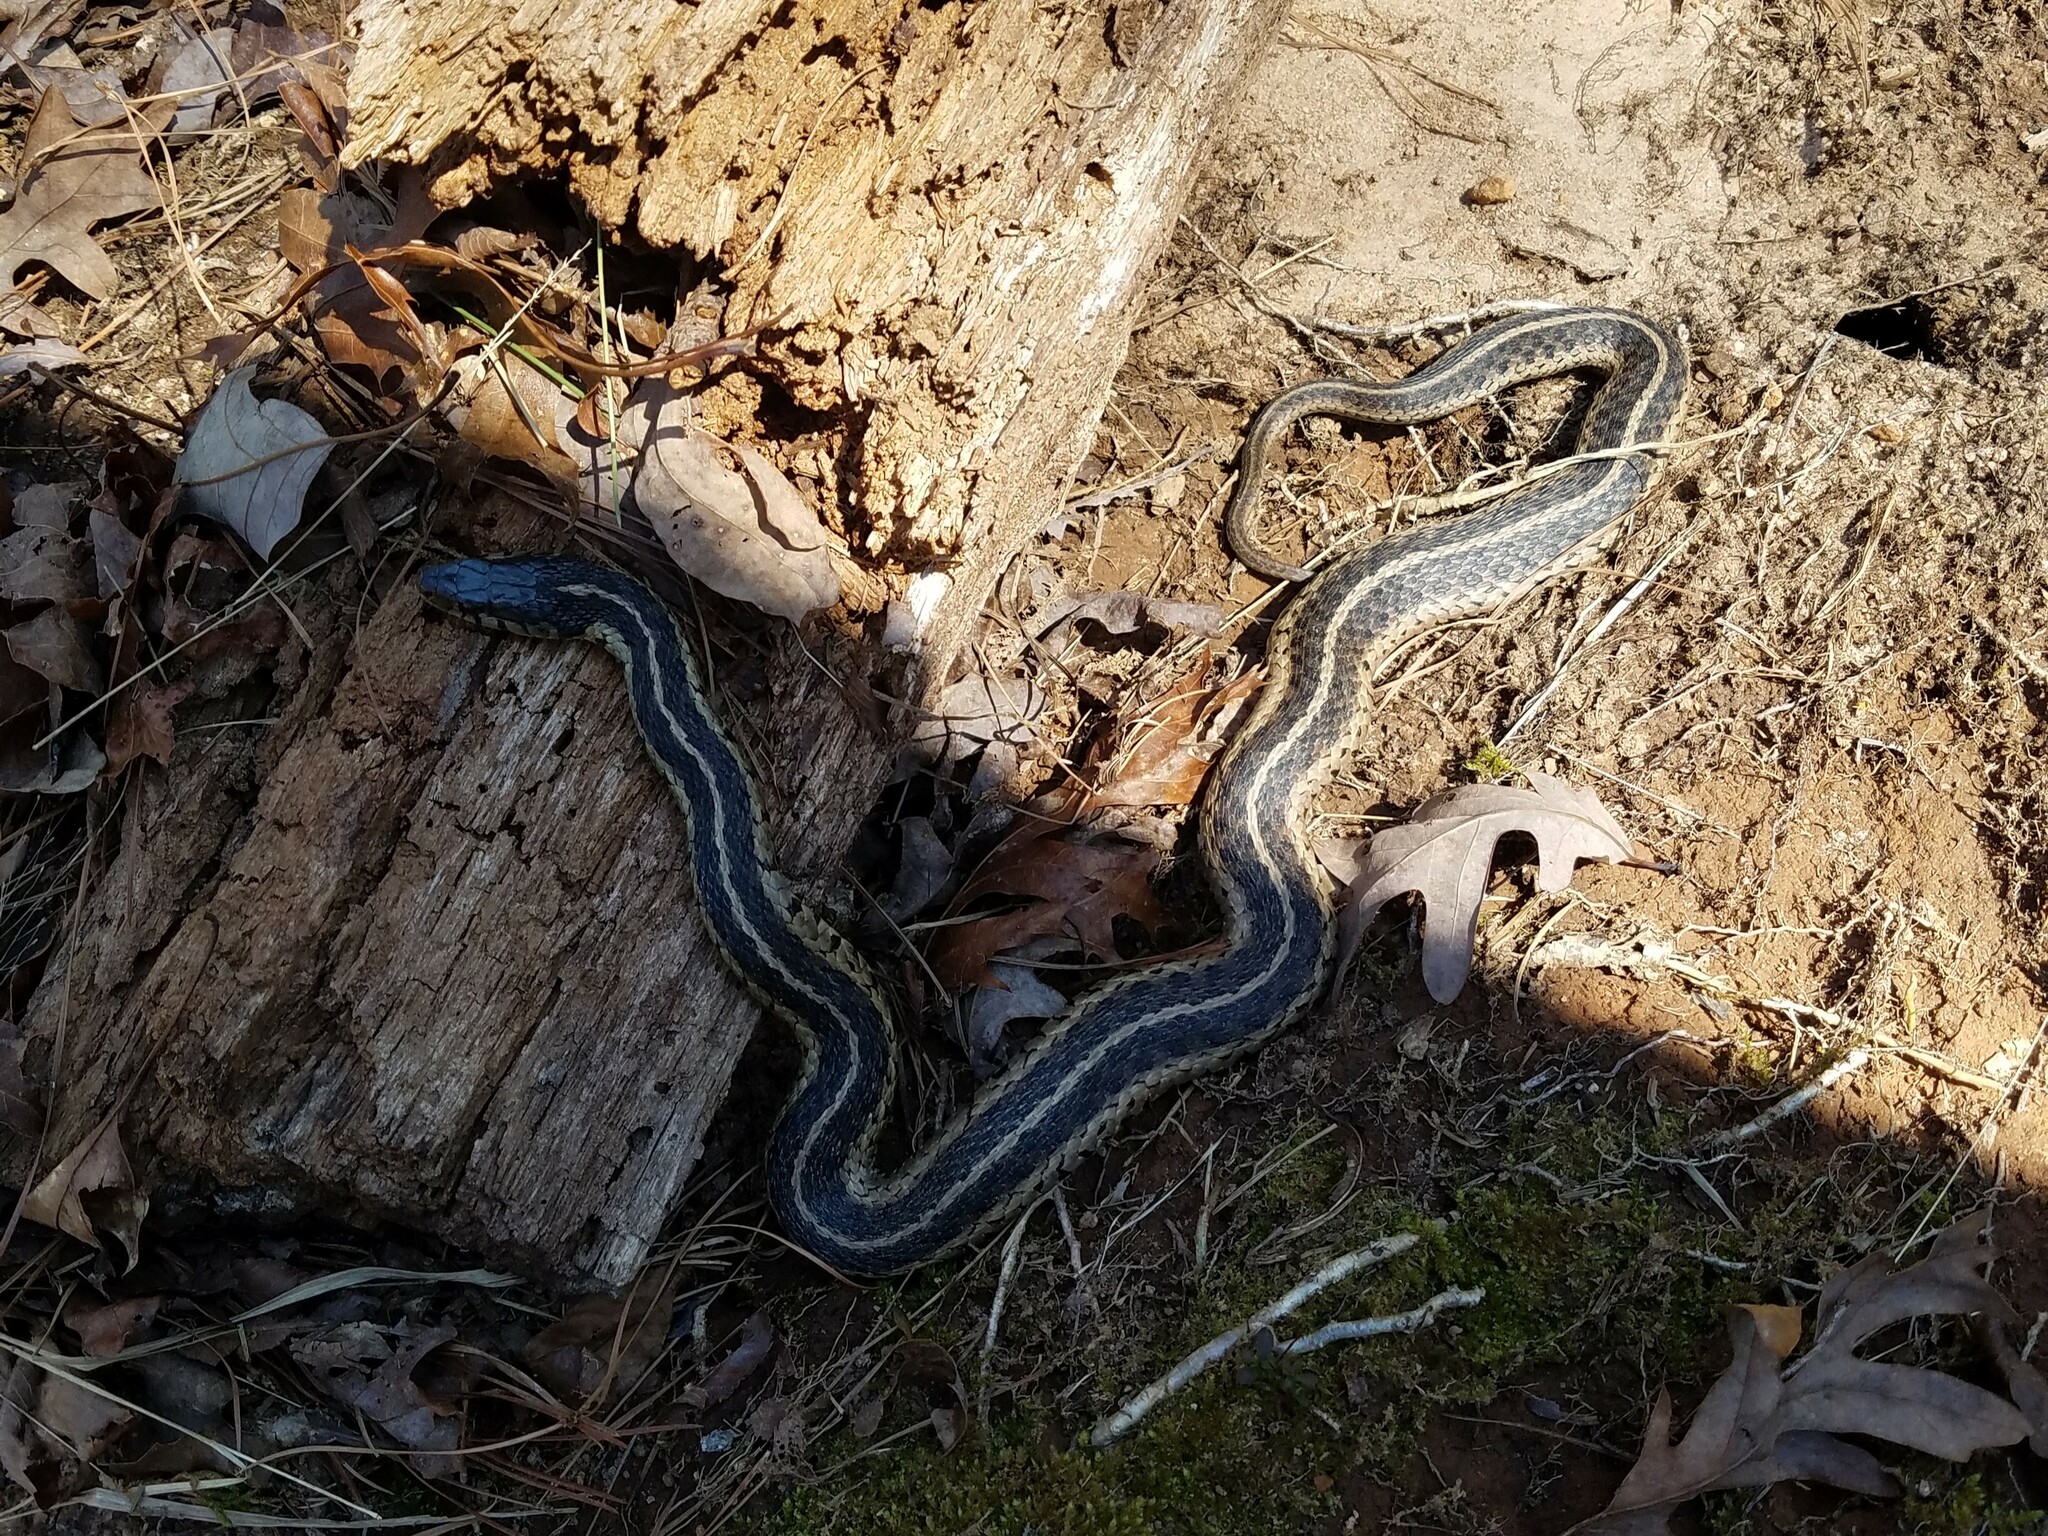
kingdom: Animalia
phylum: Chordata
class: Squamata
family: Colubridae
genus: Thamnophis
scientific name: Thamnophis sirtalis
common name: Common garter snake
